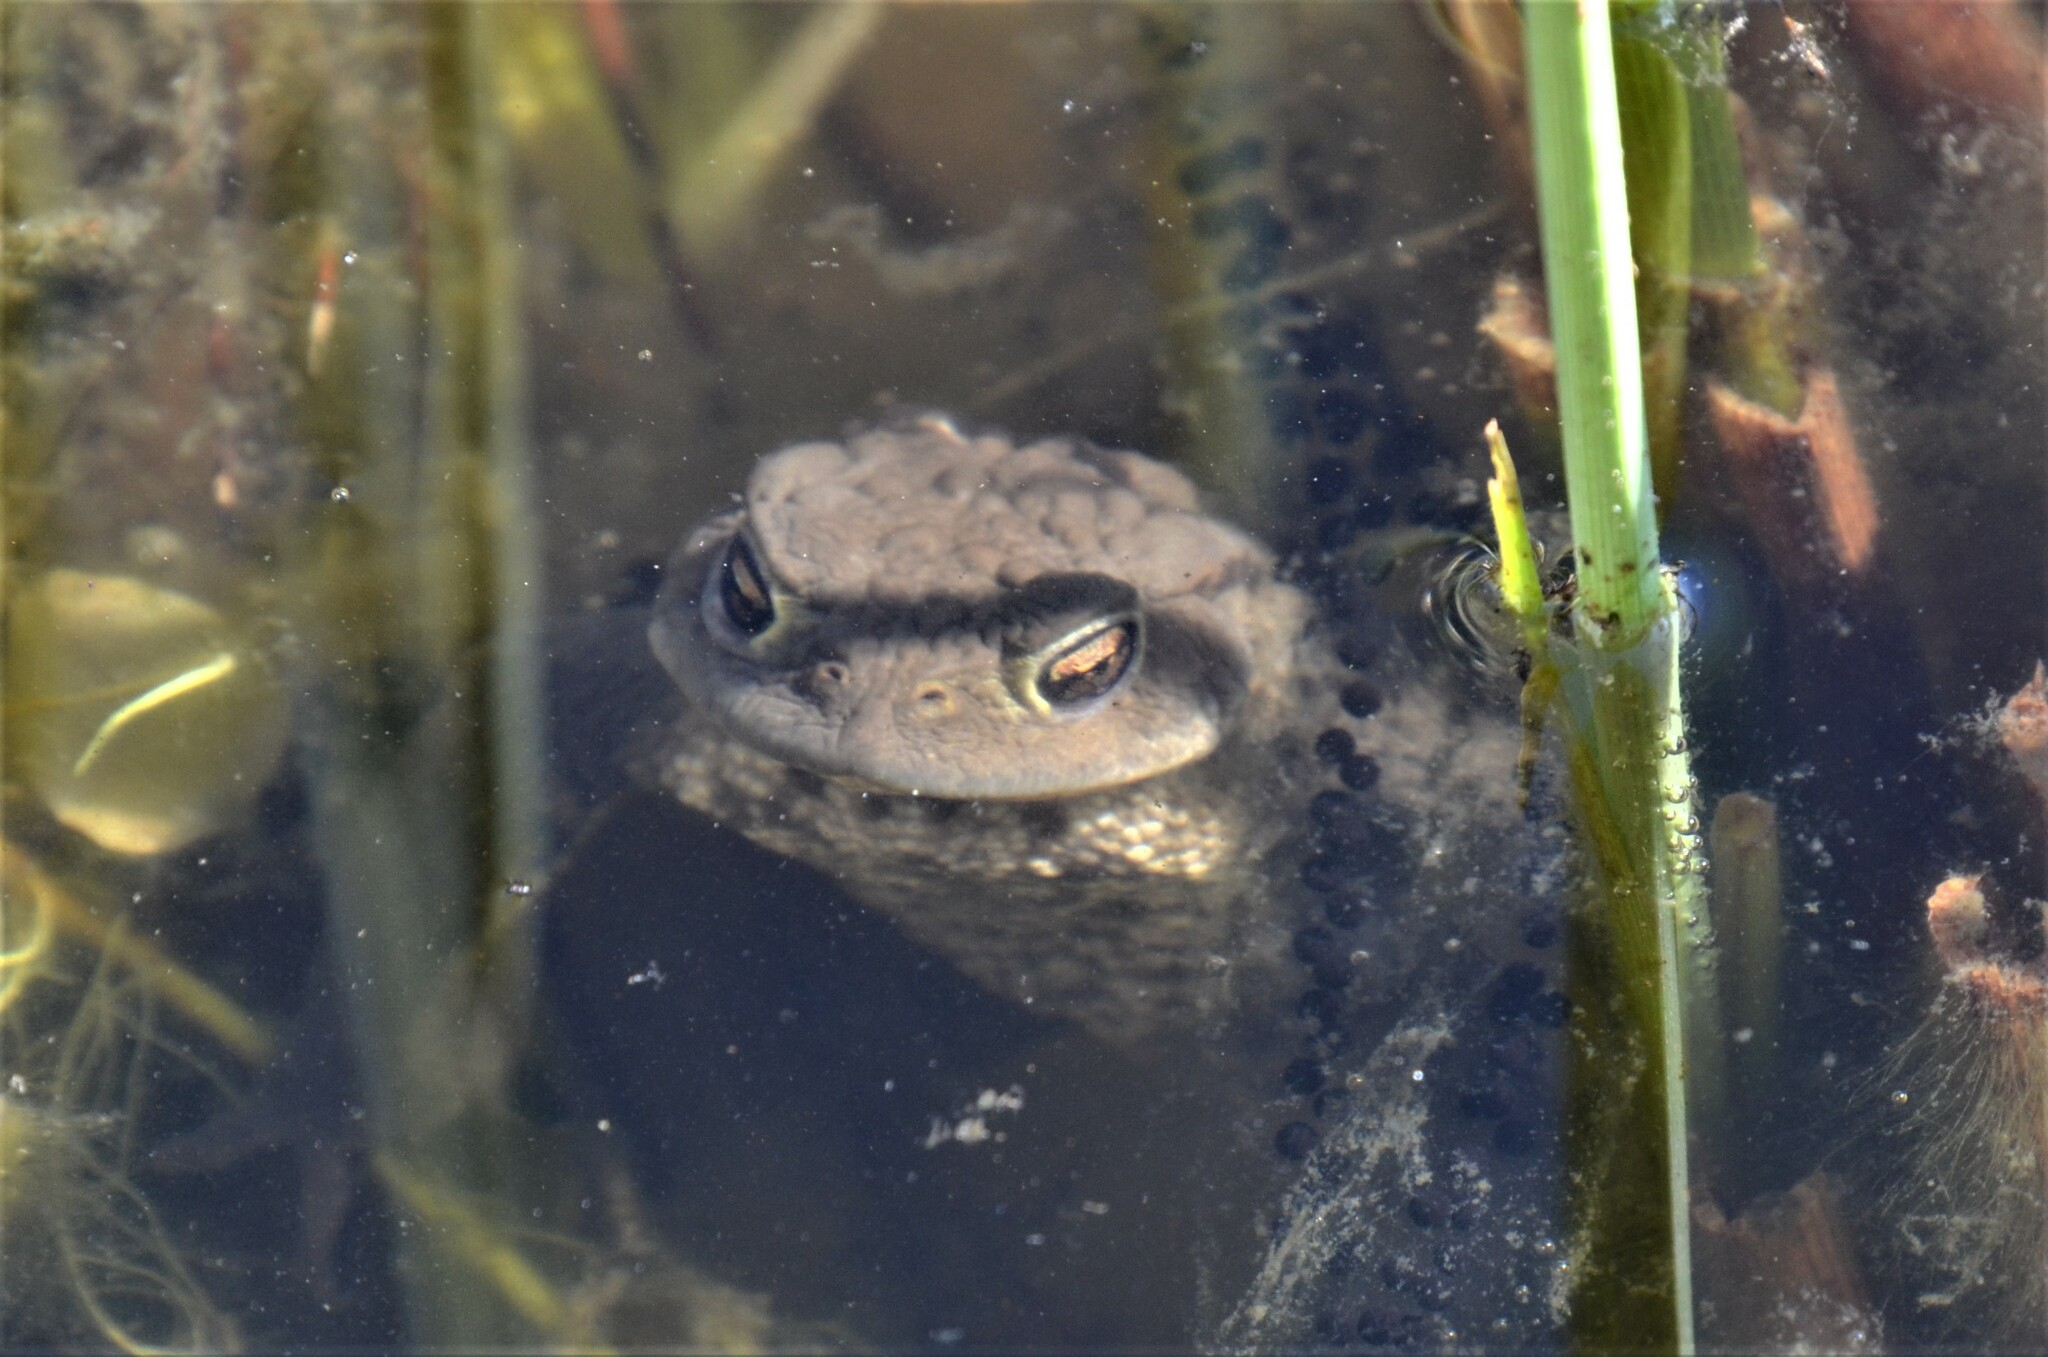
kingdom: Animalia
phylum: Chordata
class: Amphibia
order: Anura
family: Bufonidae
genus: Bufo
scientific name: Bufo bufo
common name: Common toad
